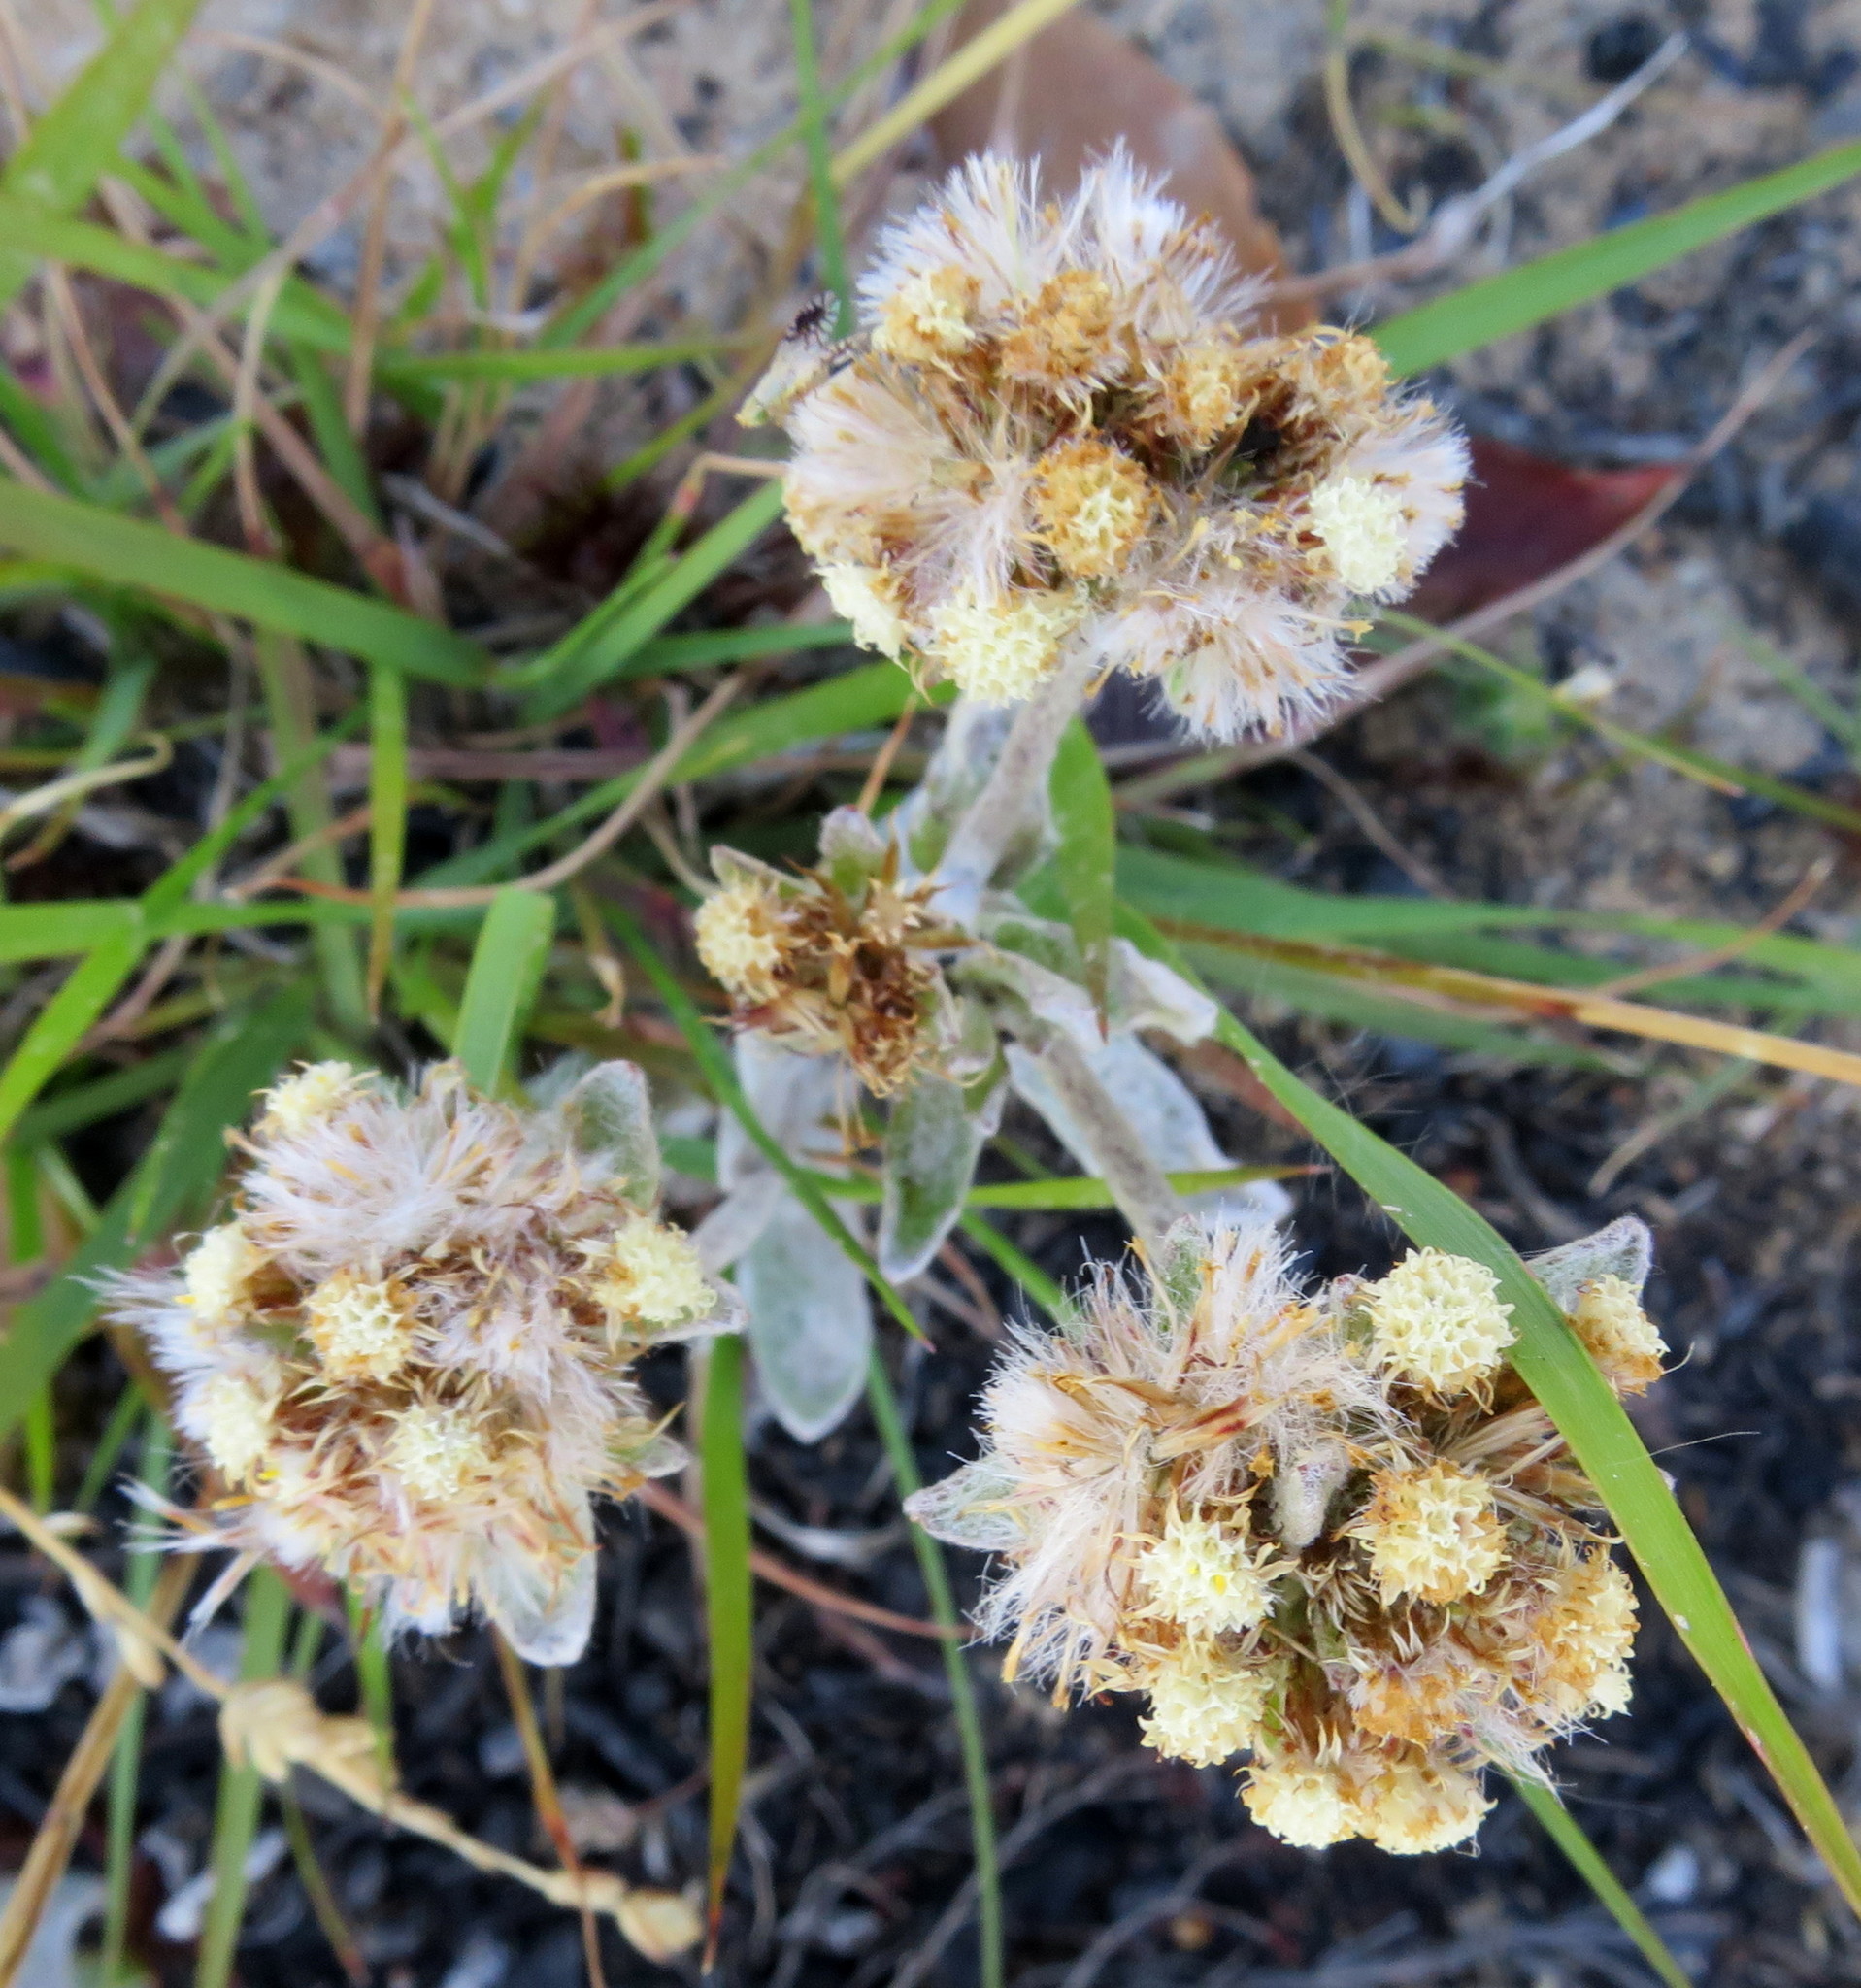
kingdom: Plantae
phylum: Tracheophyta
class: Magnoliopsida
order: Asterales
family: Asteraceae
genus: Helichrysum
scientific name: Helichrysum spiralepis
